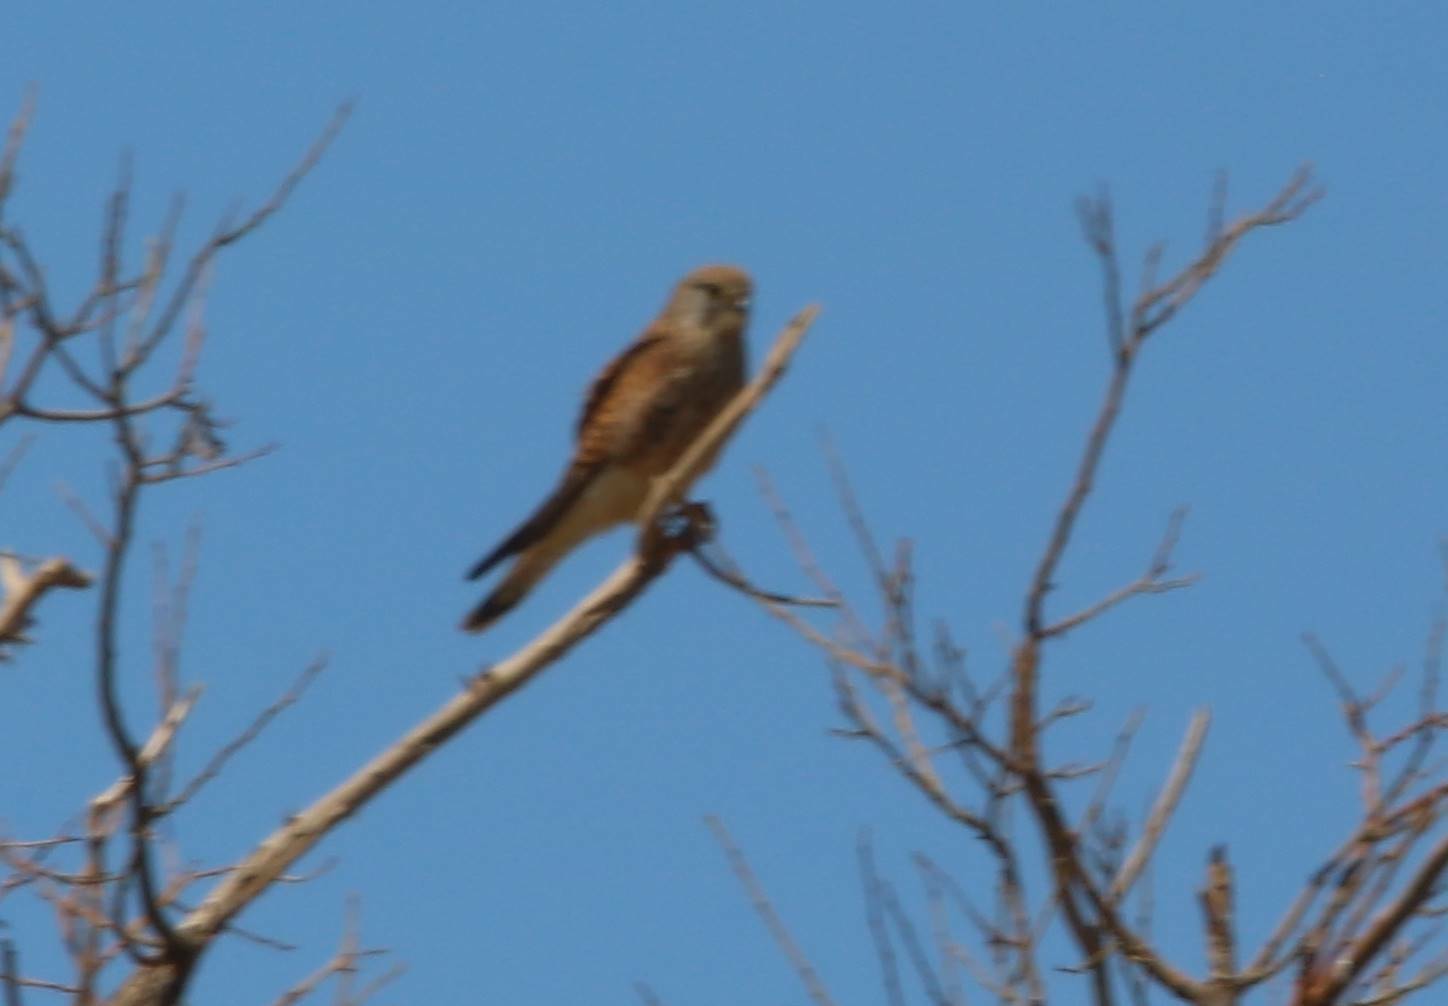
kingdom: Animalia
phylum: Chordata
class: Aves
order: Falconiformes
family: Falconidae
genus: Falco
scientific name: Falco tinnunculus
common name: Common kestrel
